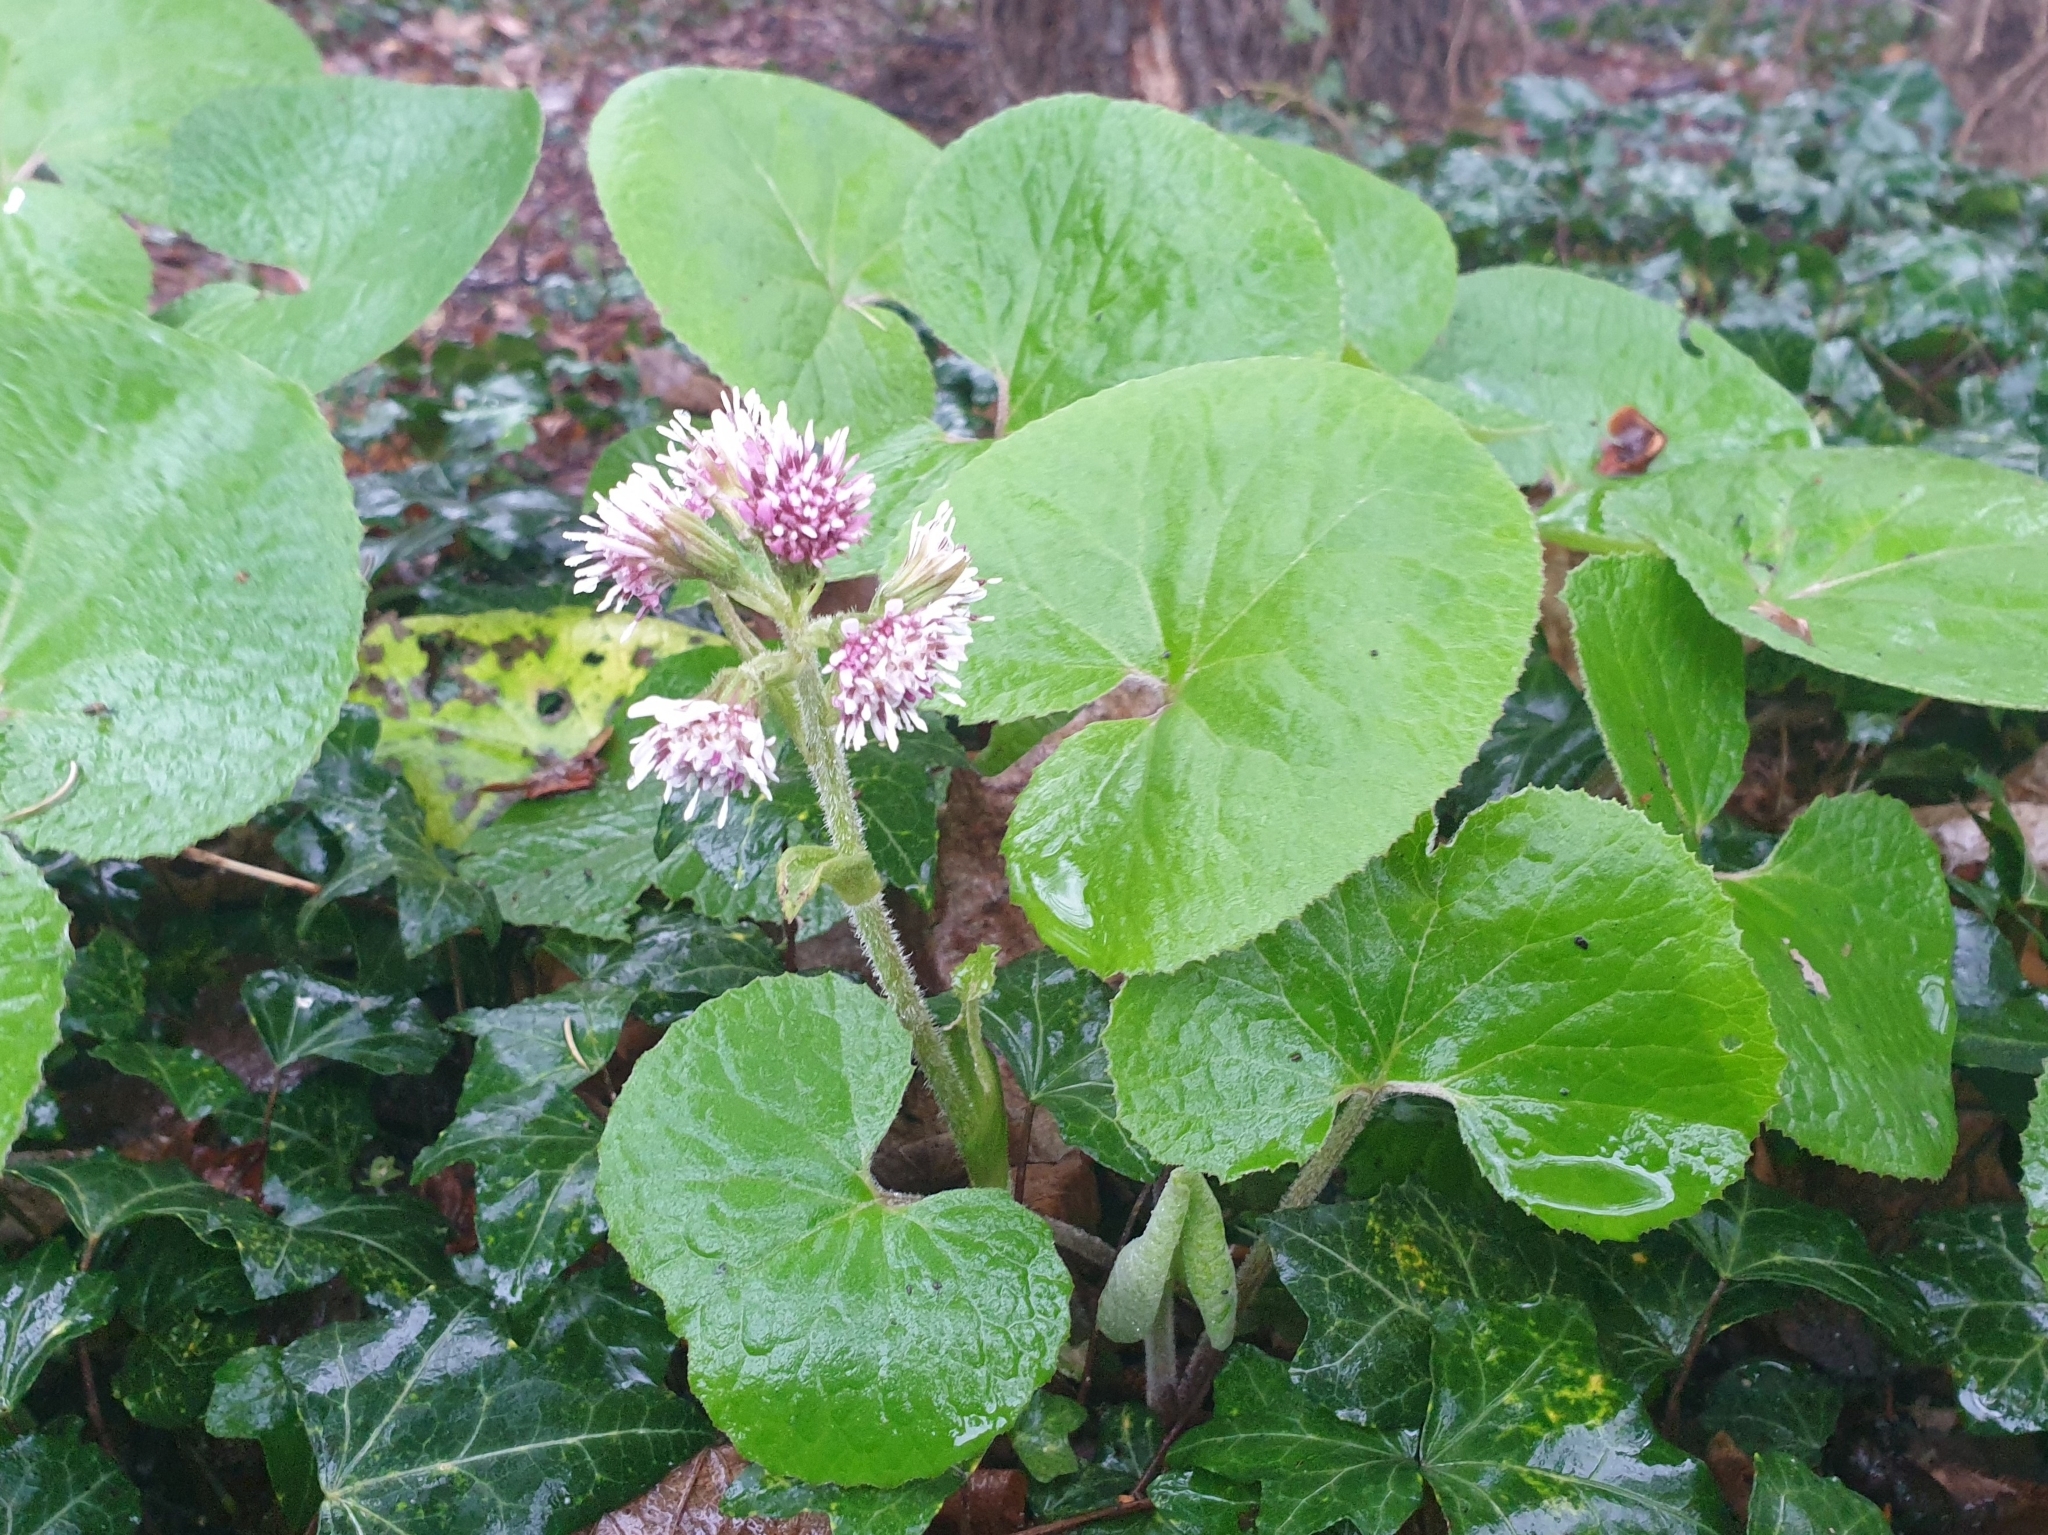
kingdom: Plantae
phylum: Tracheophyta
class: Magnoliopsida
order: Asterales
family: Asteraceae
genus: Petasites
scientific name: Petasites pyrenaicus
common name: Winter heliotrope
